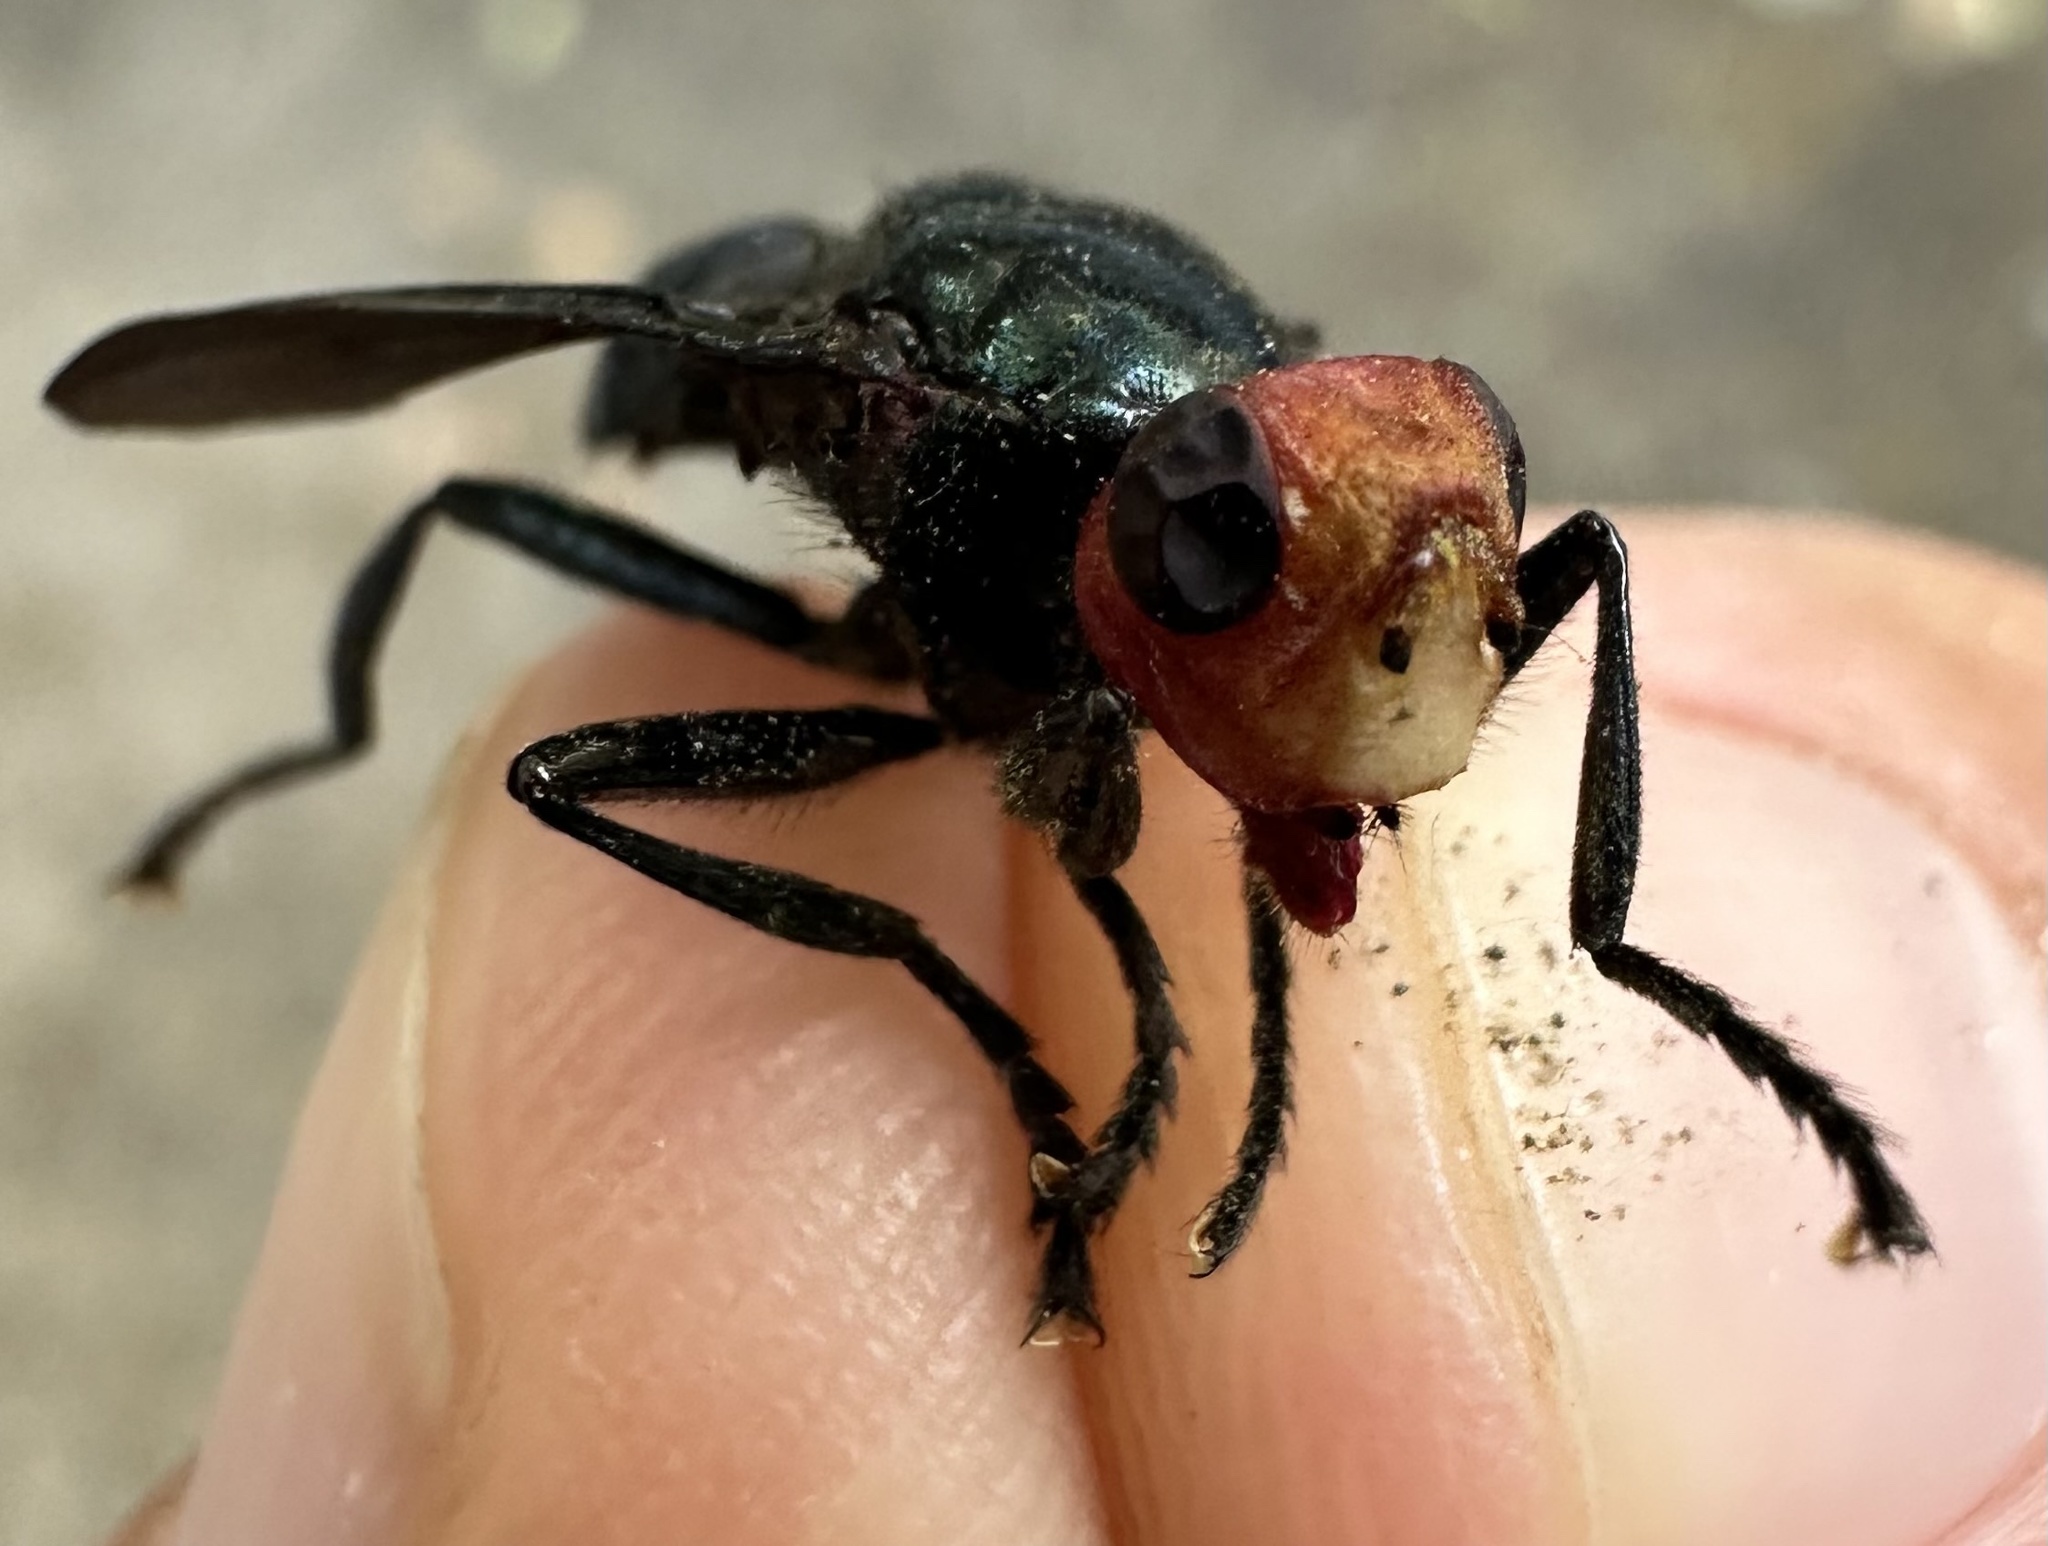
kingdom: Animalia
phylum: Arthropoda
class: Insecta
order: Diptera
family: Platystomatidae
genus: Bromophila
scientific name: Bromophila caffra
